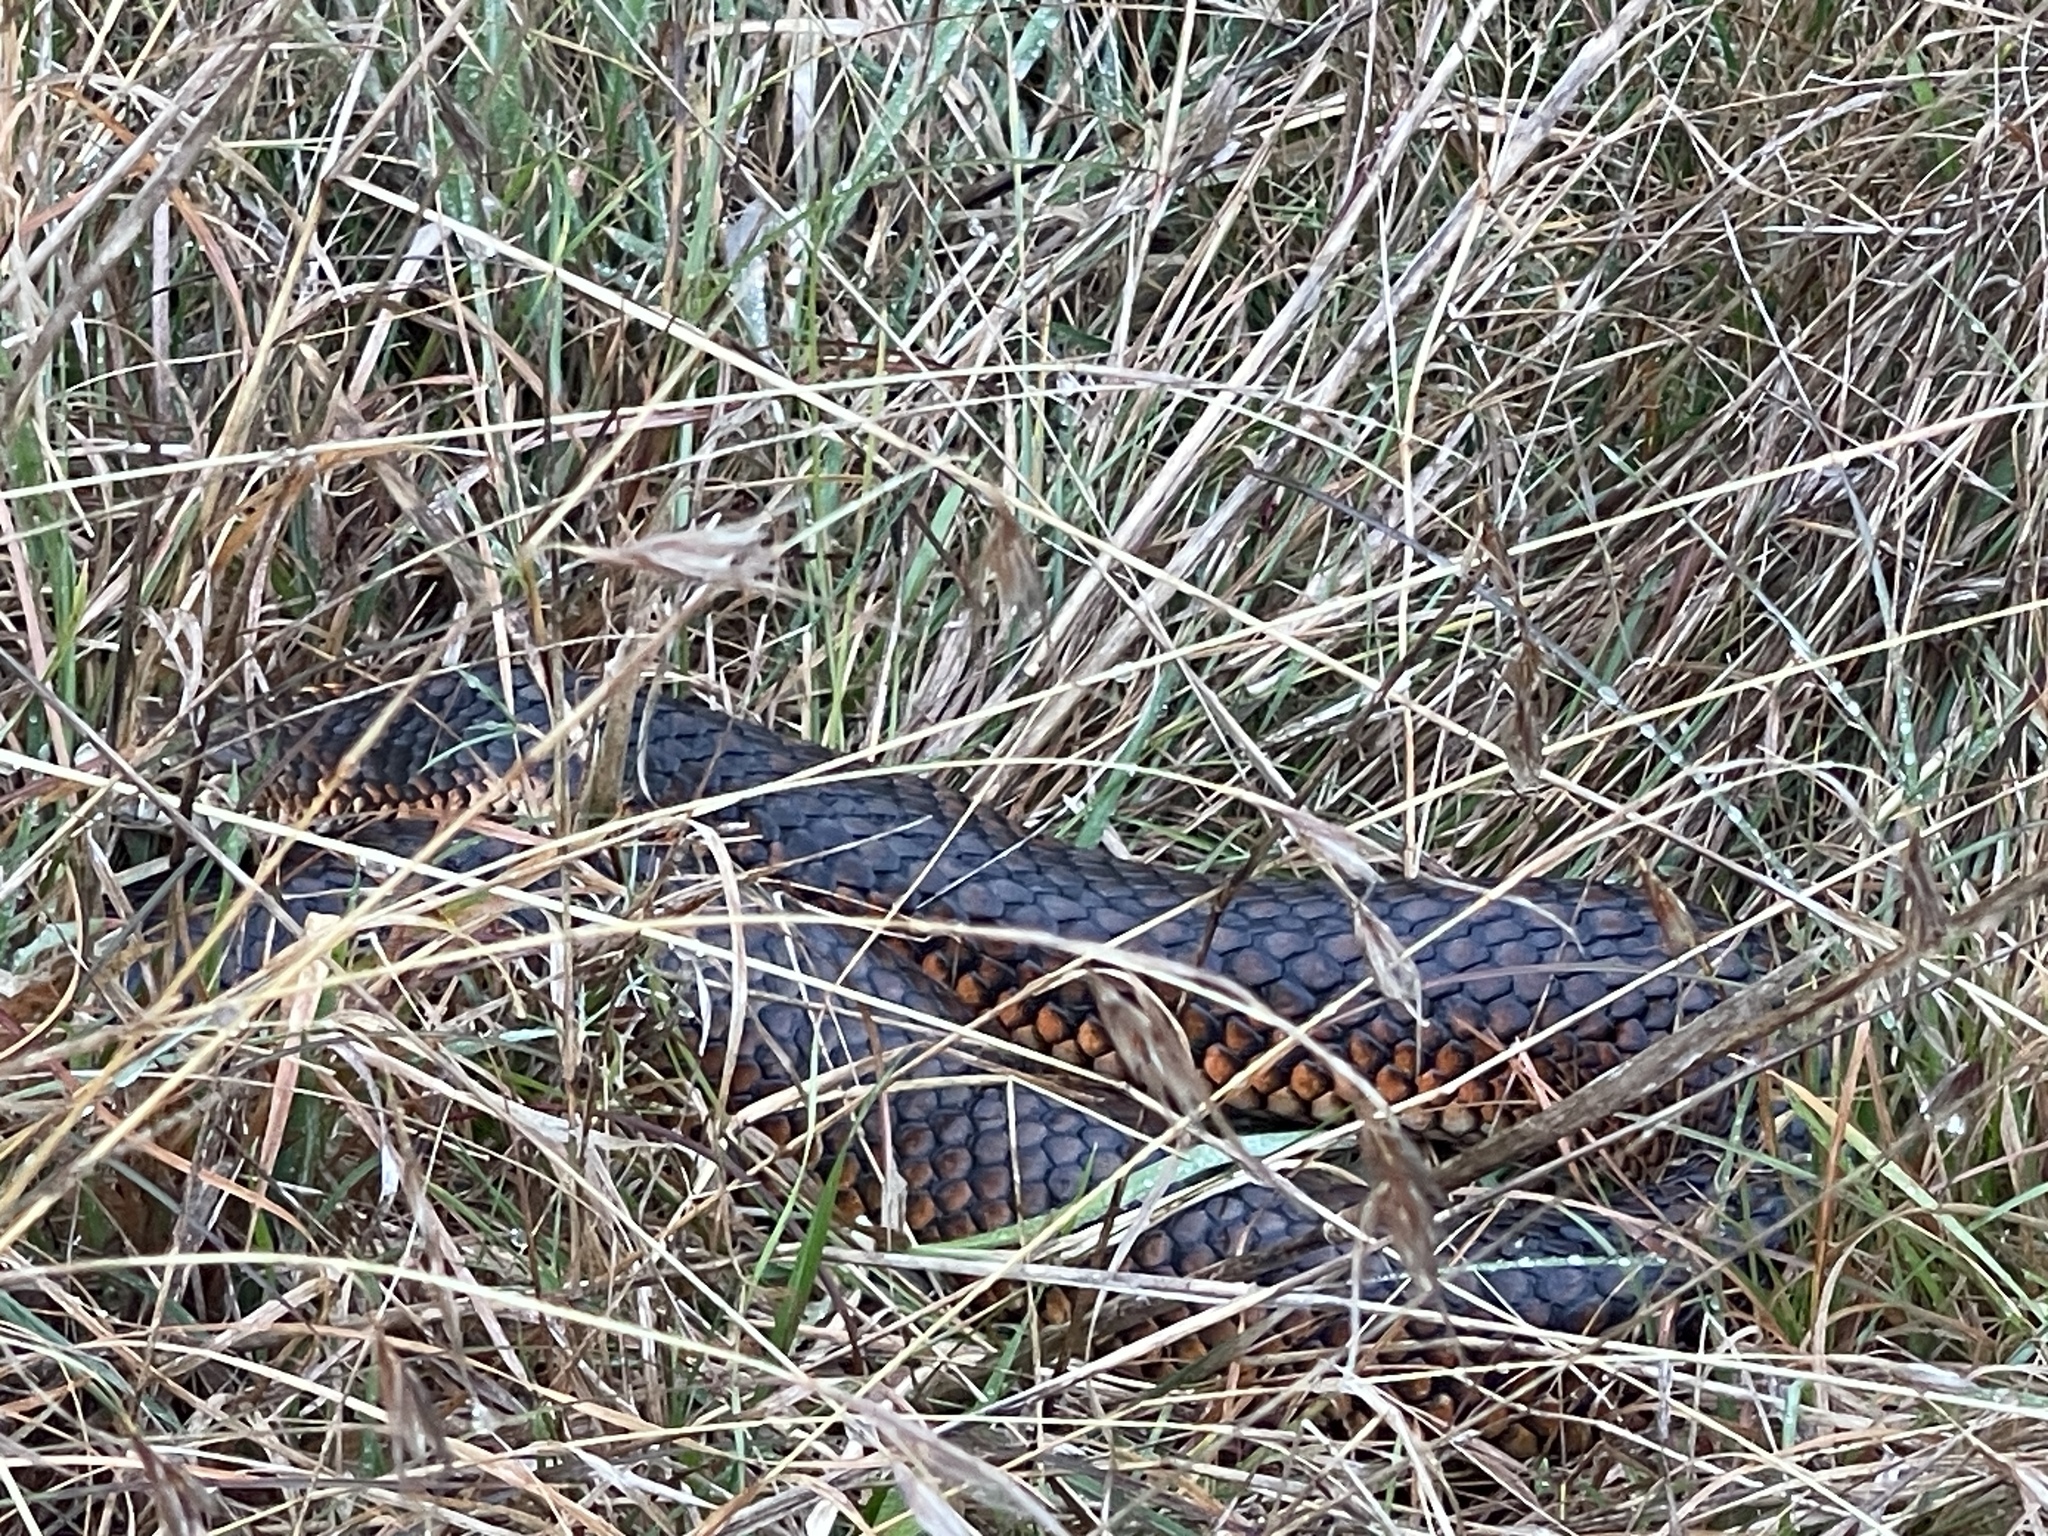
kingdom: Animalia
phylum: Chordata
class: Squamata
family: Elapidae
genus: Austrelaps
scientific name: Austrelaps superbus
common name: Copperhead snake
